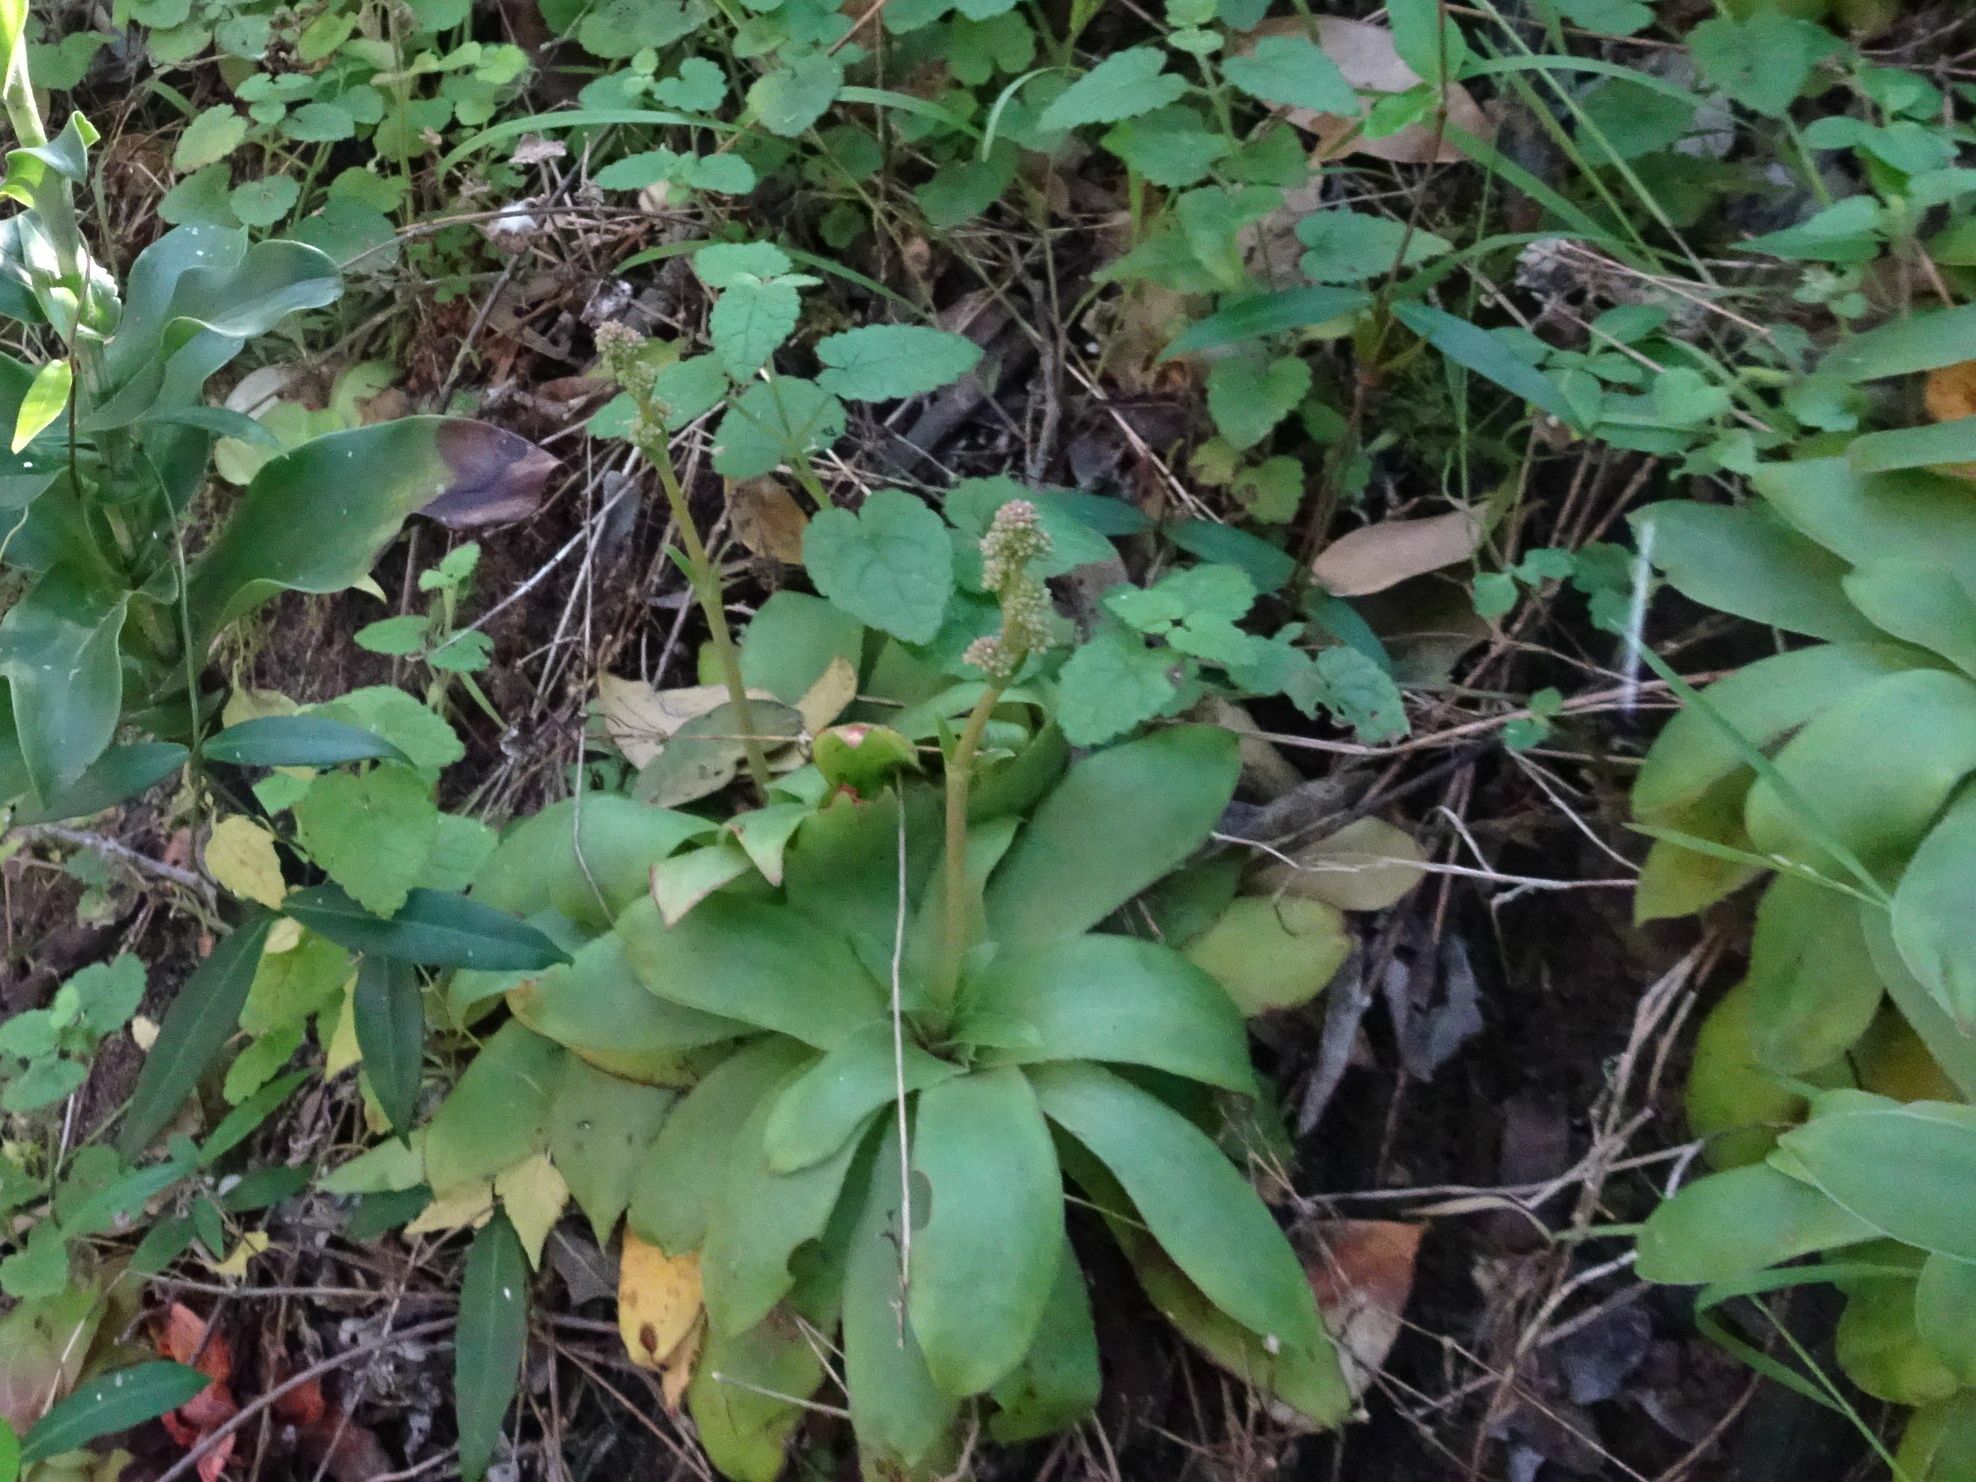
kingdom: Plantae
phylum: Tracheophyta
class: Magnoliopsida
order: Saxifragales
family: Crassulaceae
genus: Crassula
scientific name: Crassula orbicularis
